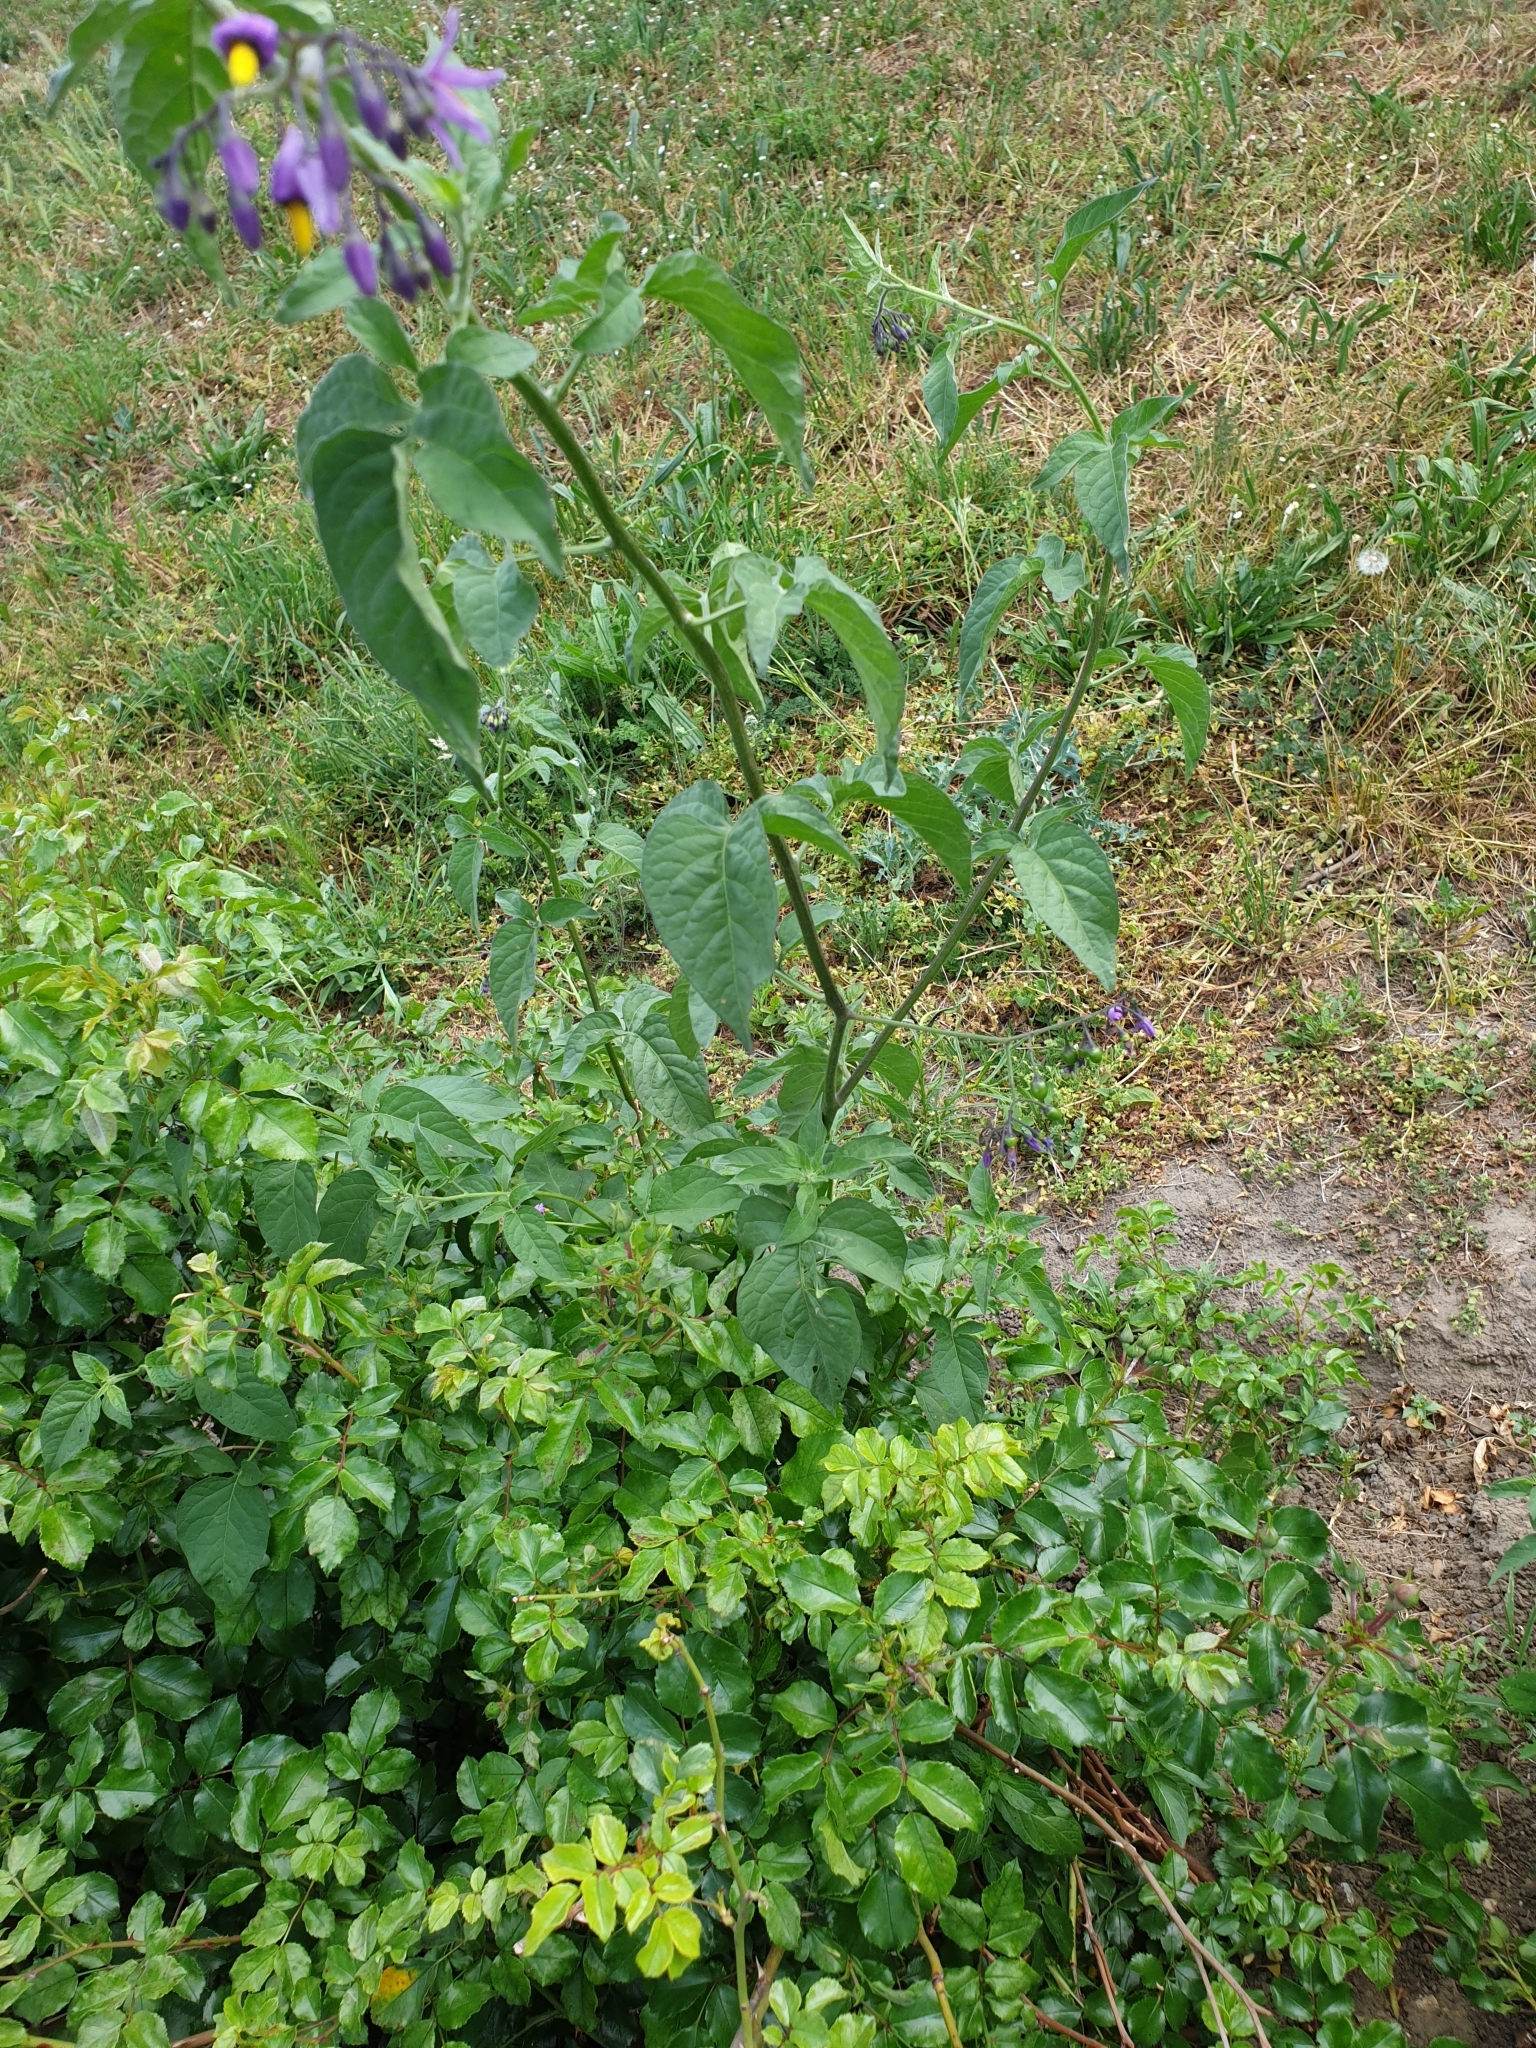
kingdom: Plantae
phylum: Tracheophyta
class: Magnoliopsida
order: Solanales
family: Solanaceae
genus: Solanum
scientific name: Solanum dulcamara
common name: Climbing nightshade
